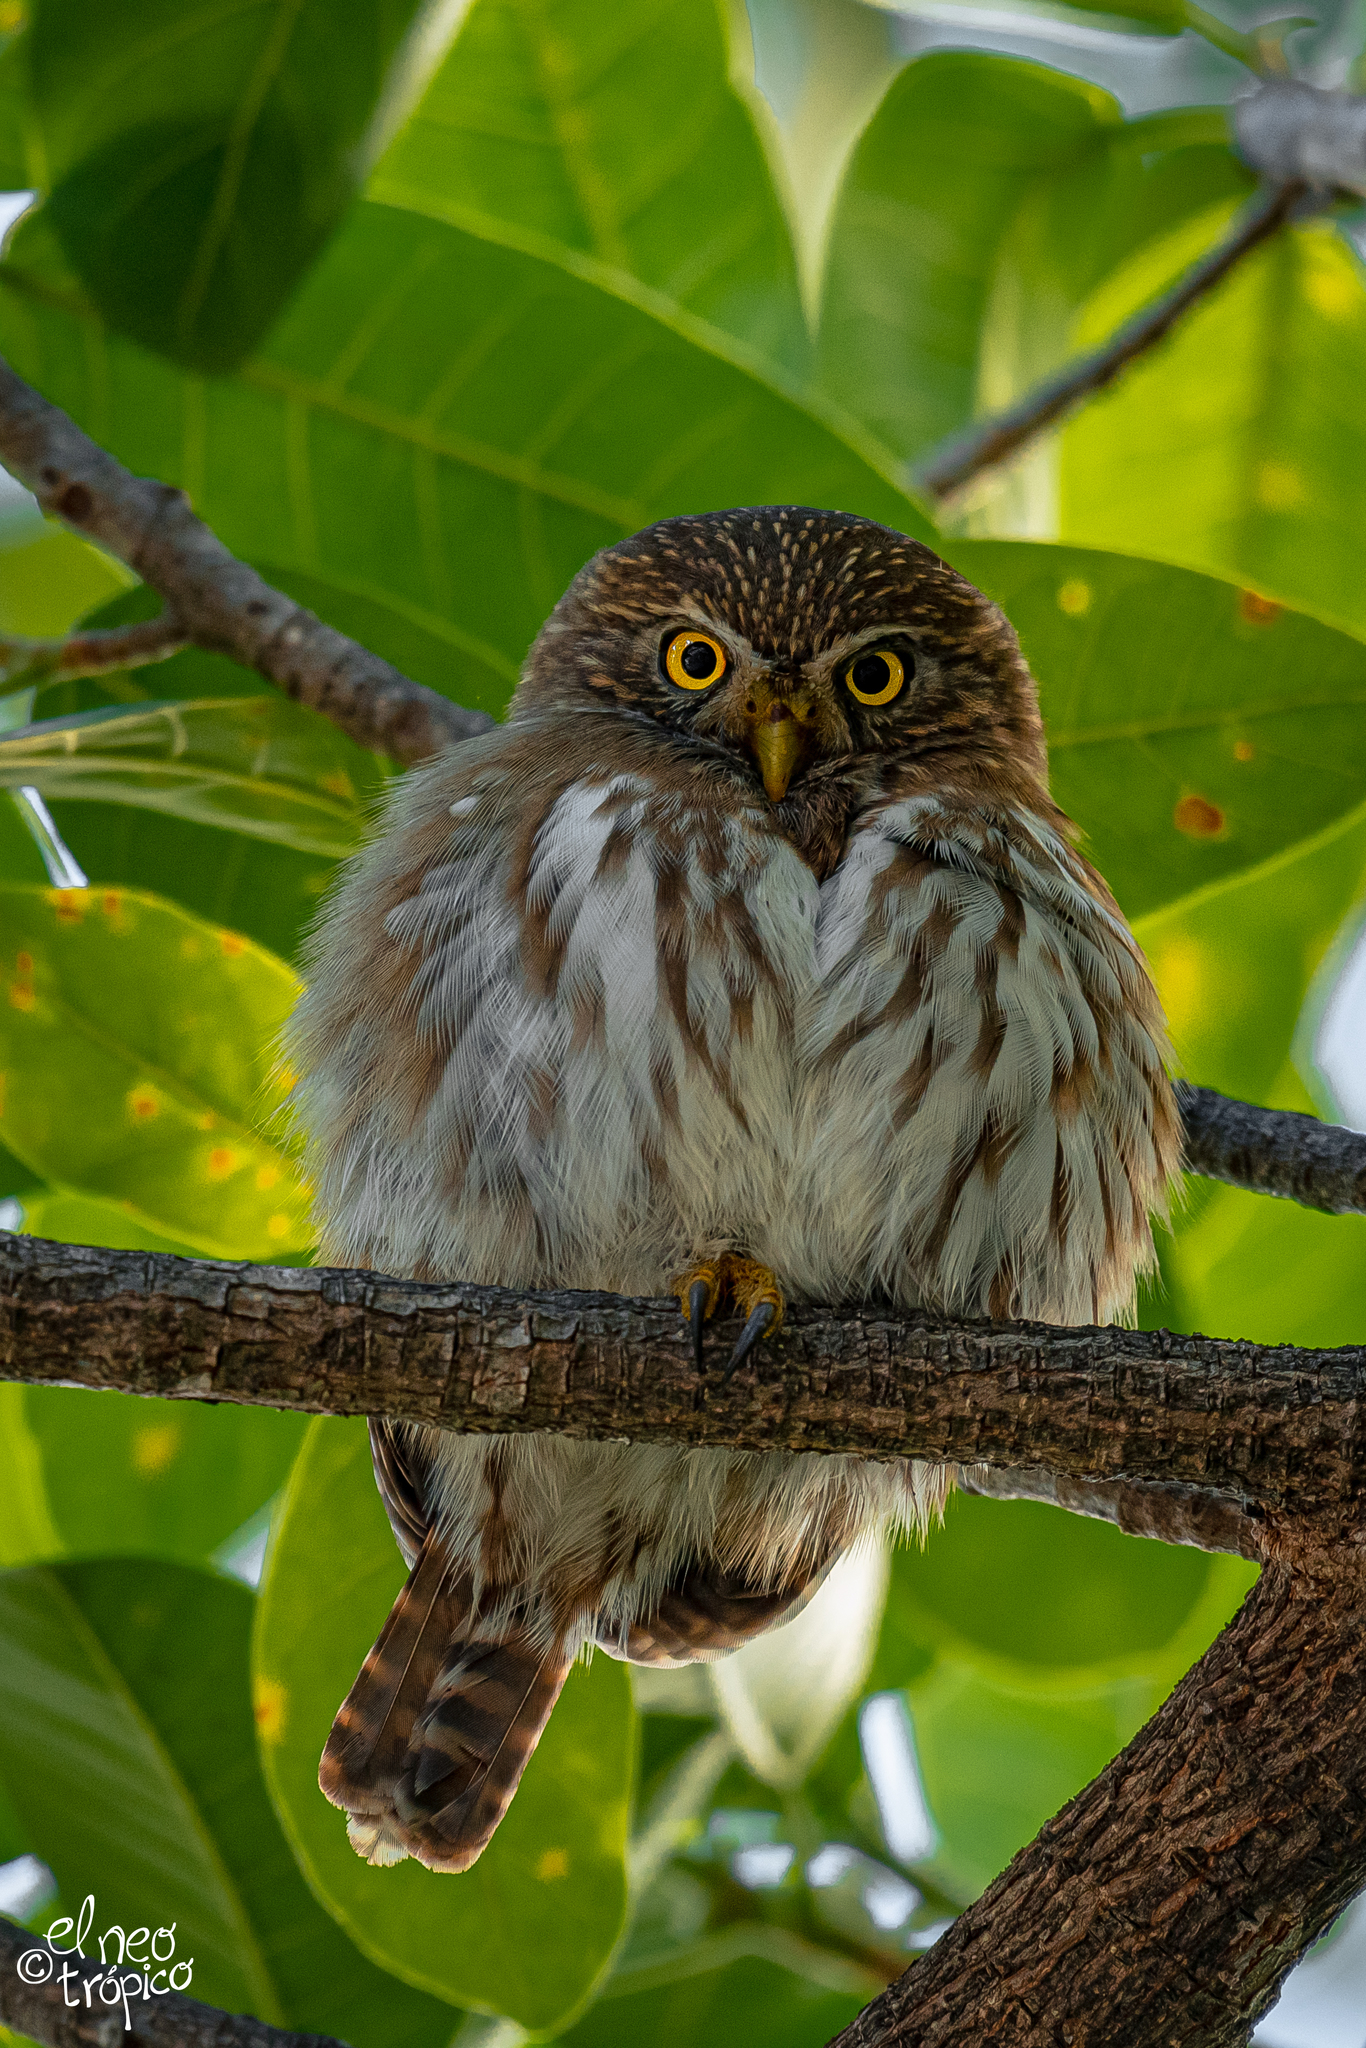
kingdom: Animalia
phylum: Chordata
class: Aves
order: Strigiformes
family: Strigidae
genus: Glaucidium
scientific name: Glaucidium brasilianum
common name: Ferruginous pygmy-owl
